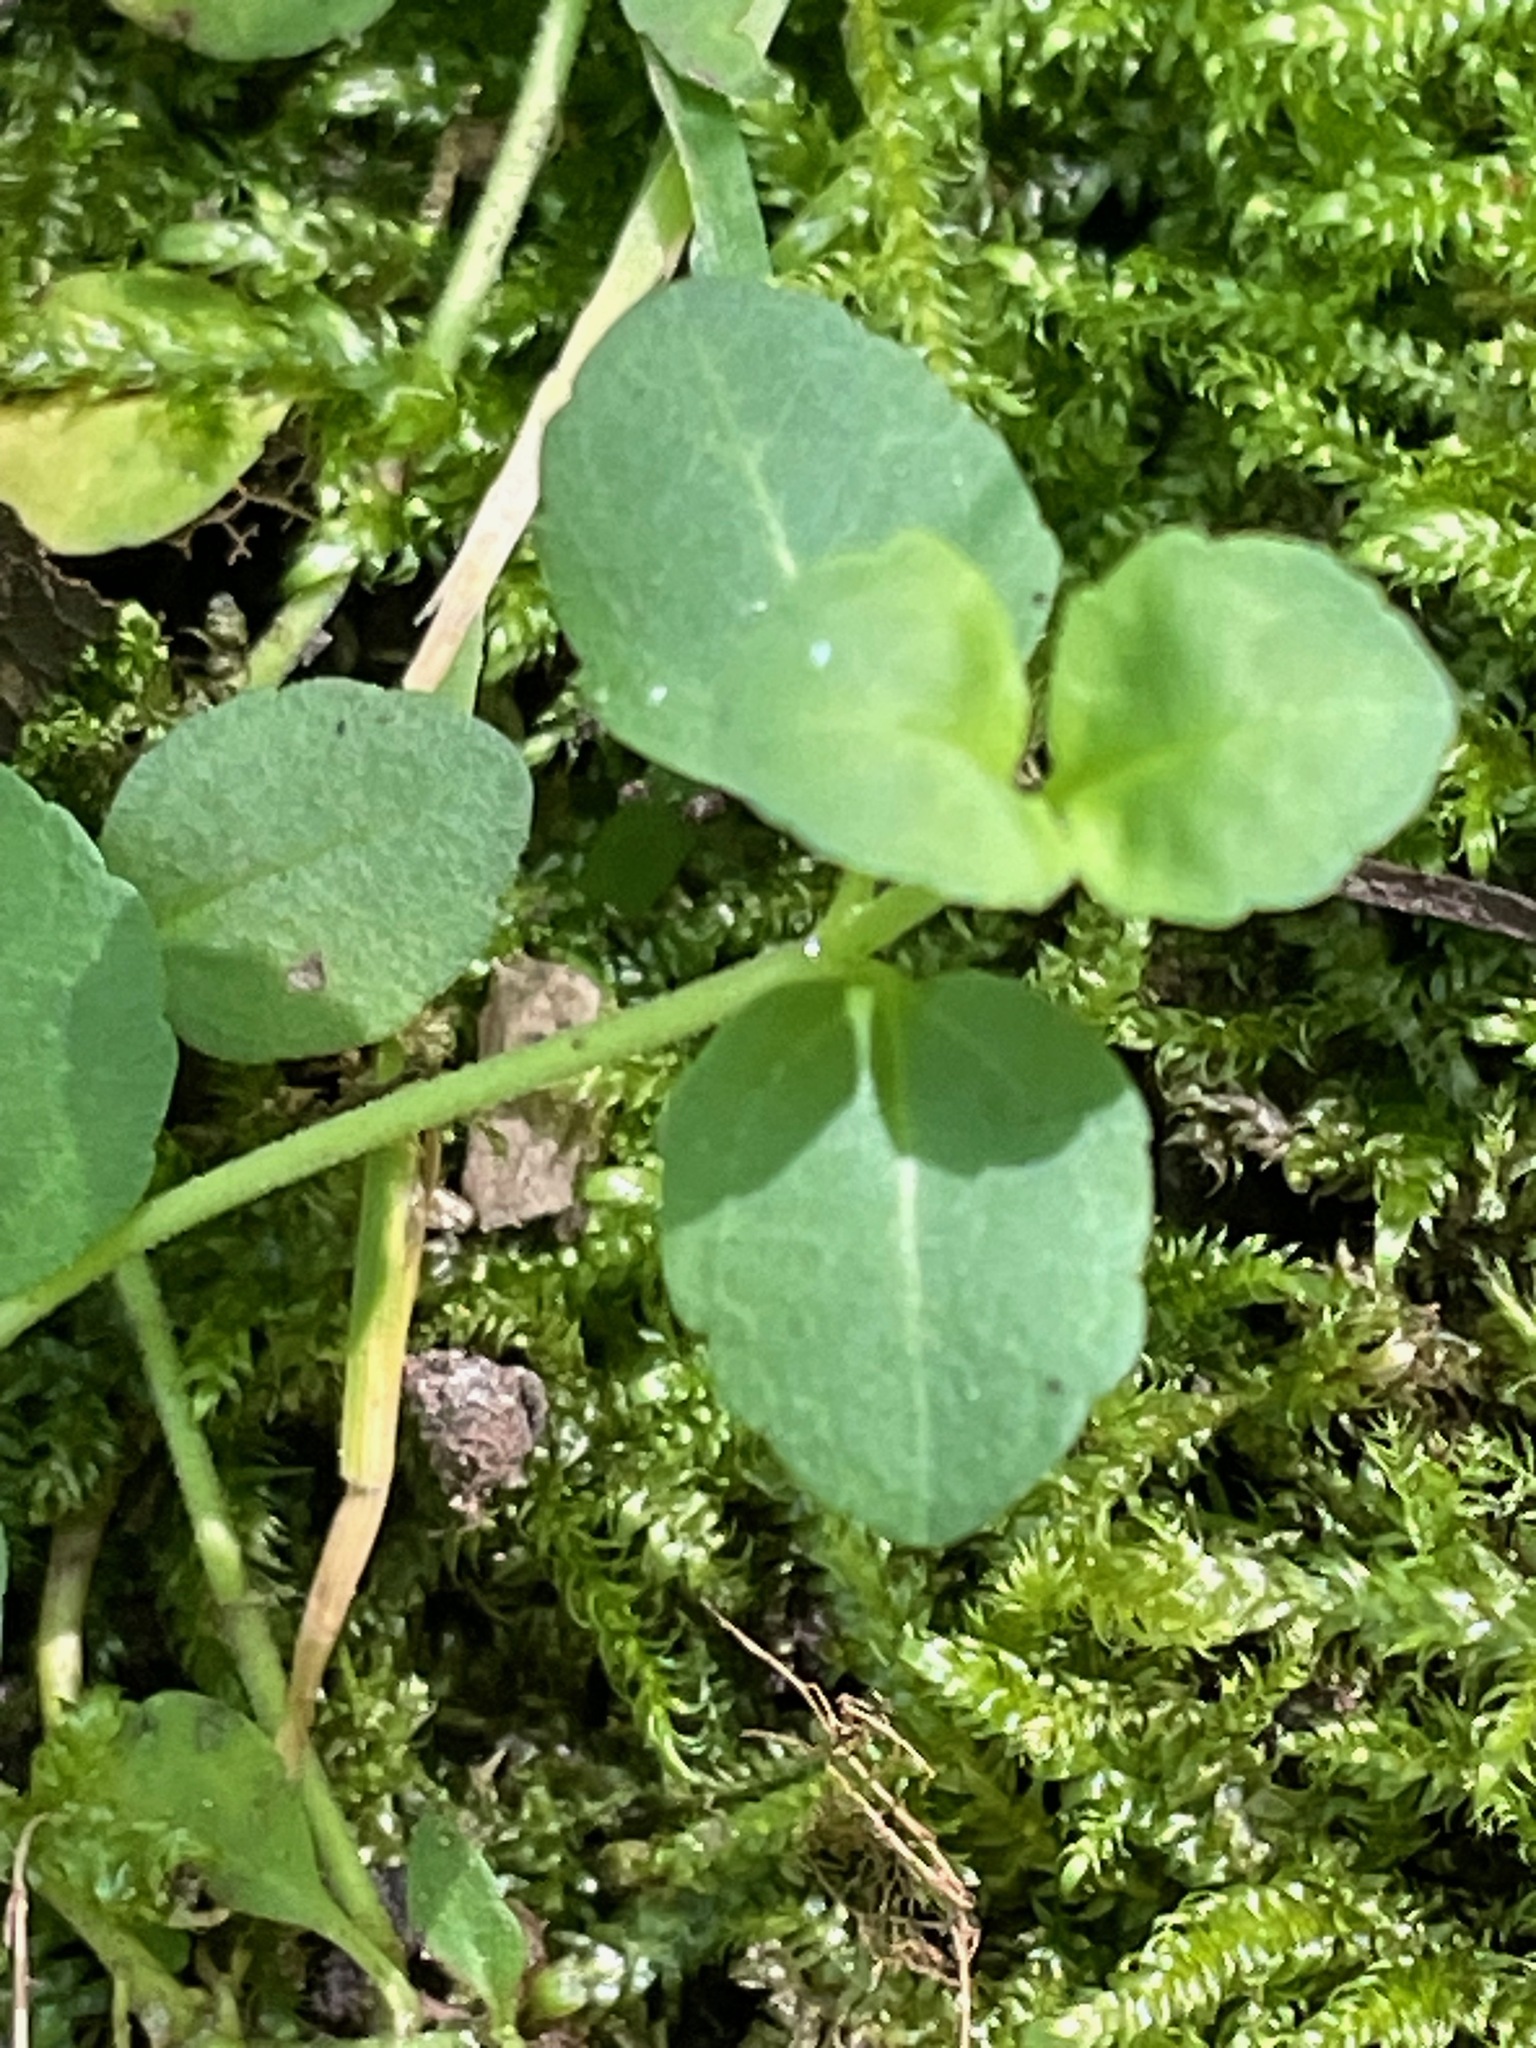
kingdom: Plantae
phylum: Tracheophyta
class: Magnoliopsida
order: Lamiales
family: Plantaginaceae
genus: Veronica
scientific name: Veronica serpyllifolia
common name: Thyme-leaved speedwell
